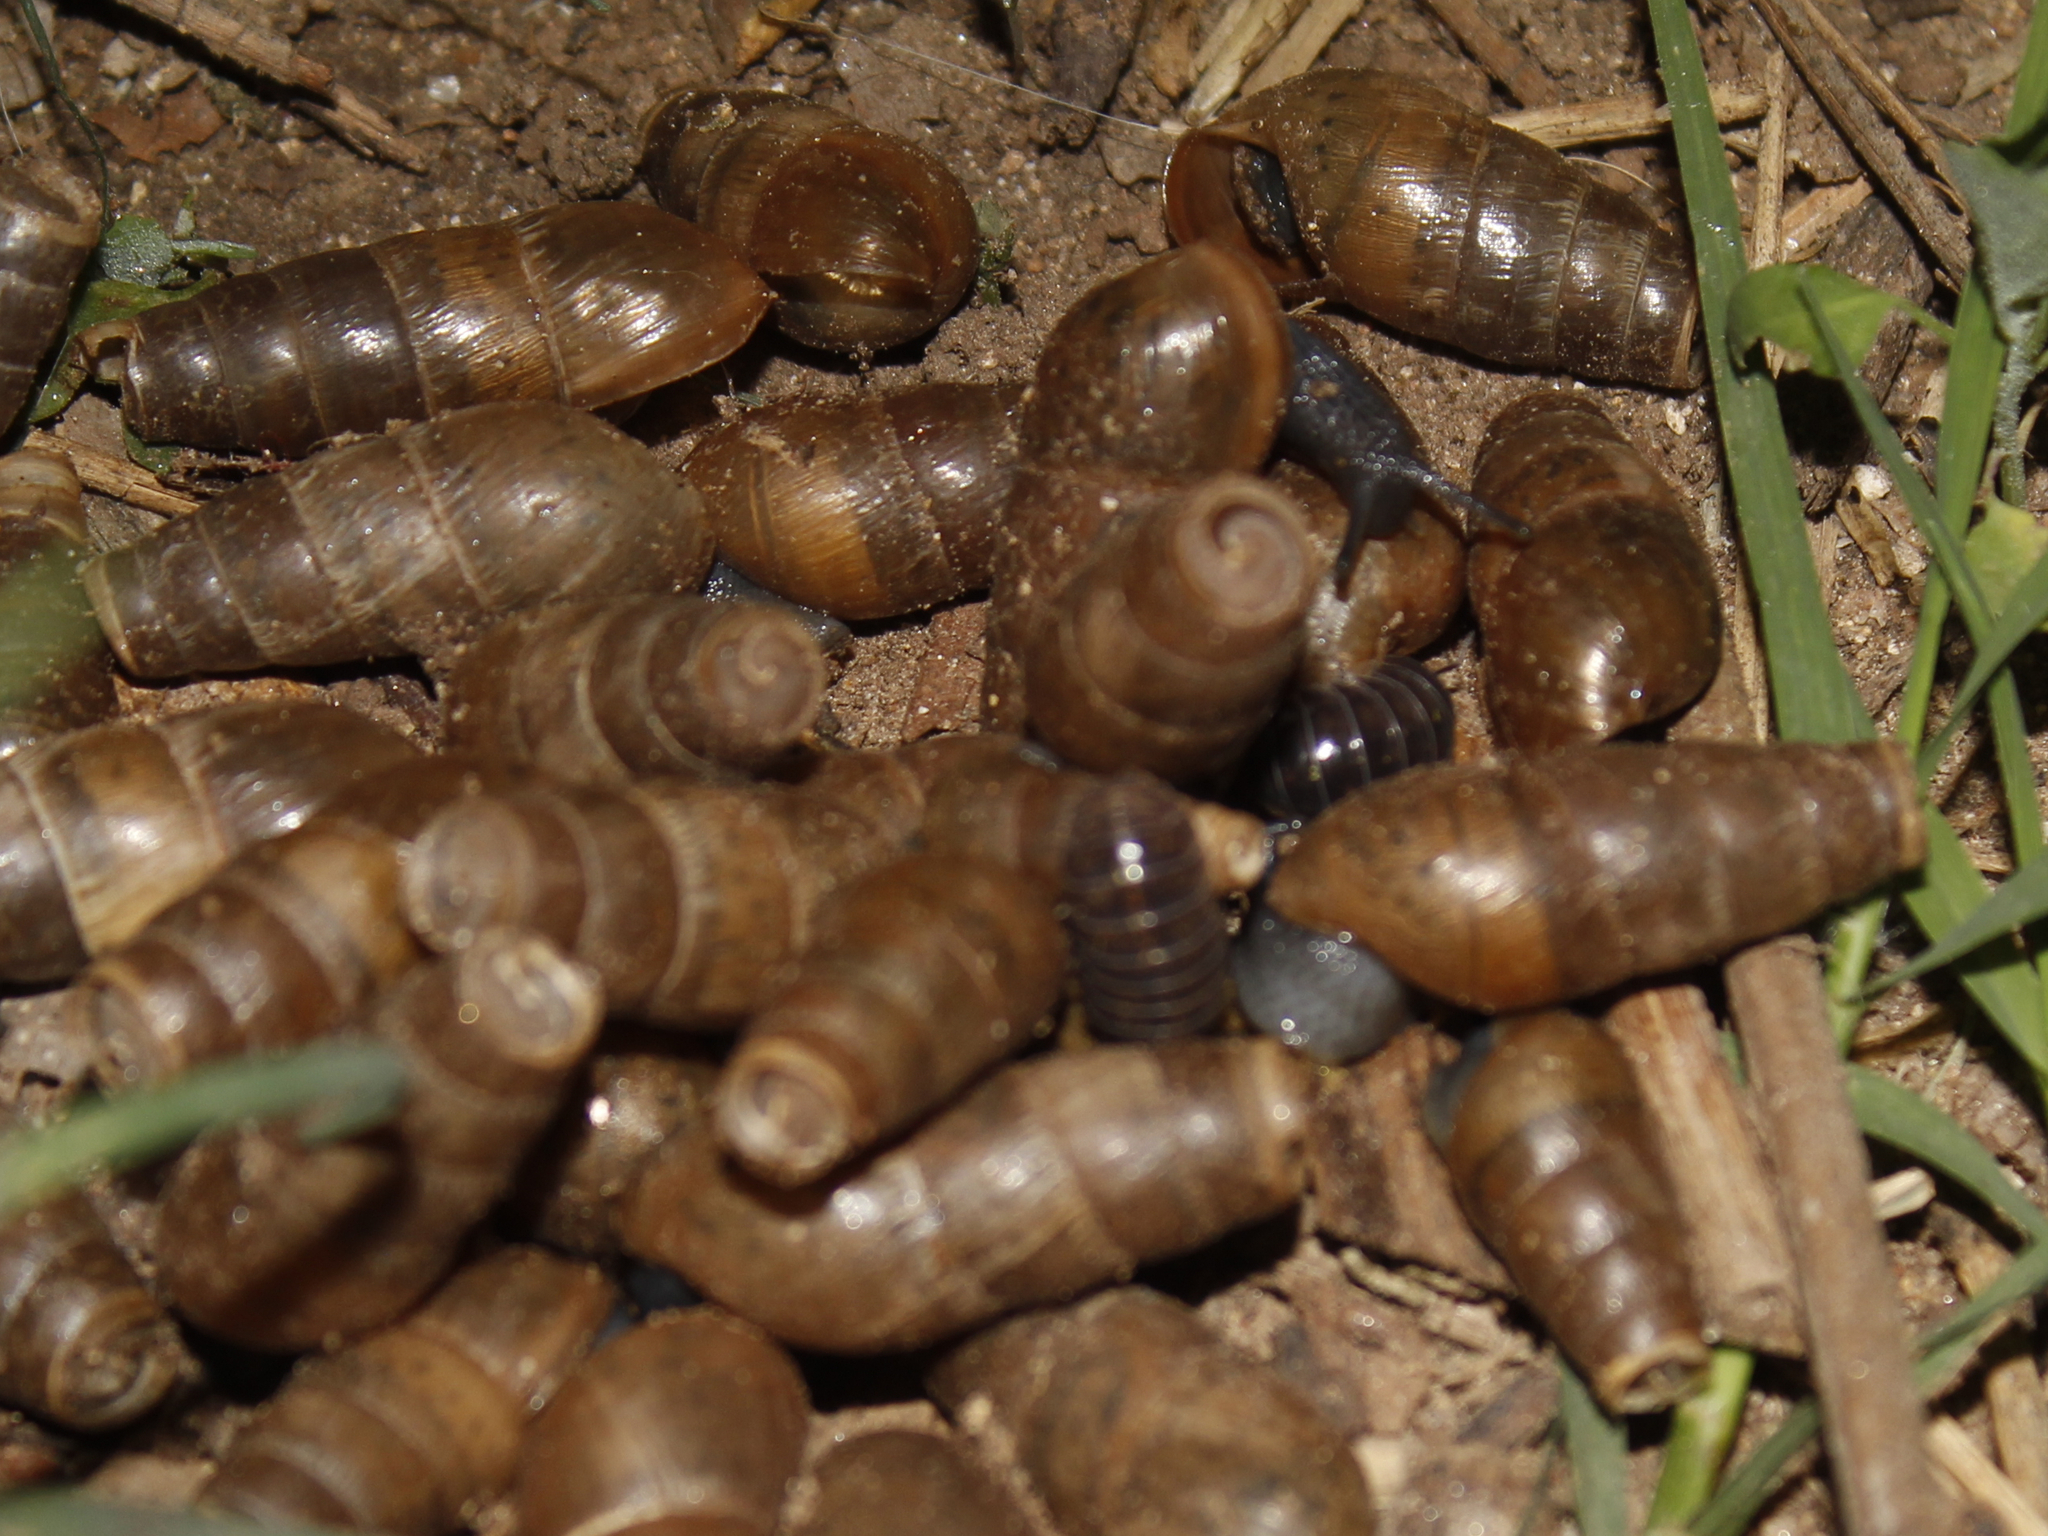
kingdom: Animalia
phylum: Mollusca
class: Gastropoda
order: Stylommatophora
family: Achatinidae
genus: Rumina
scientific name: Rumina decollata
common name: Decollate snail
